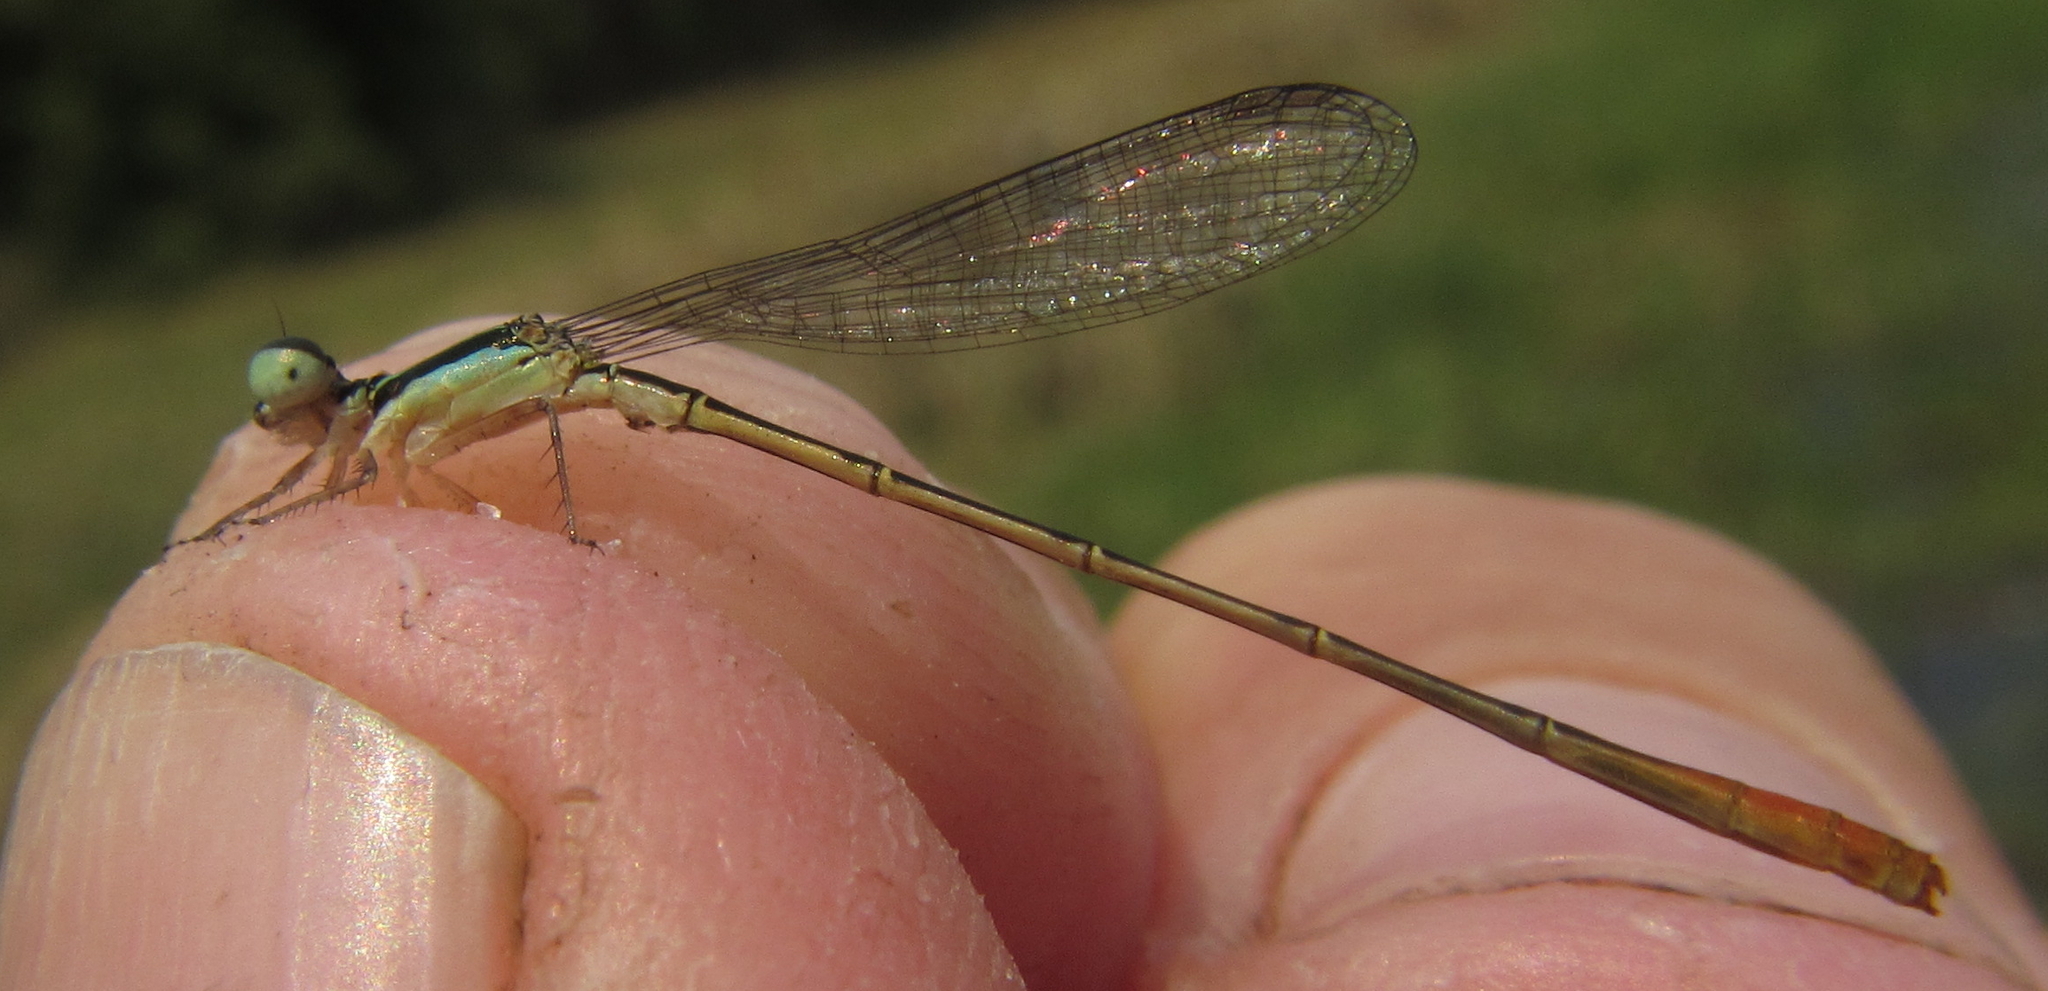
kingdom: Animalia
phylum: Arthropoda
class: Insecta
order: Odonata
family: Coenagrionidae
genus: Agriocnemis
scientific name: Agriocnemis gratiosa
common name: Gracious wisp
